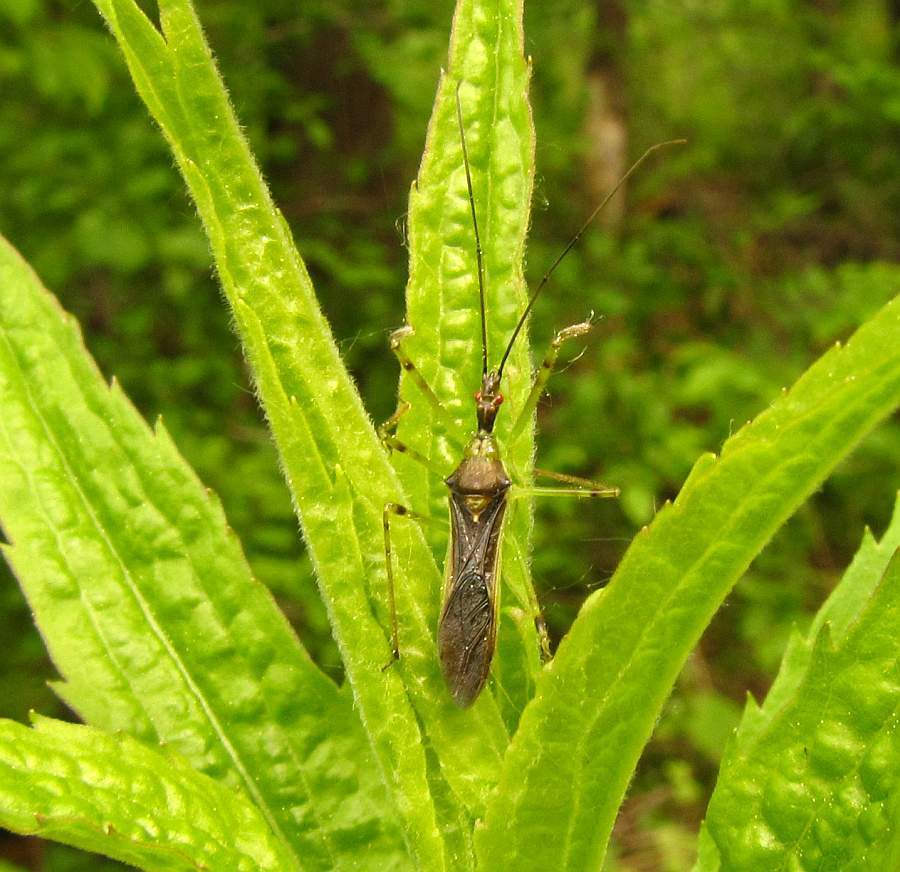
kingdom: Animalia
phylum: Arthropoda
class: Insecta
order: Hemiptera
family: Reduviidae
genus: Zelus
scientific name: Zelus luridus
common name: Pale green assassin bug
